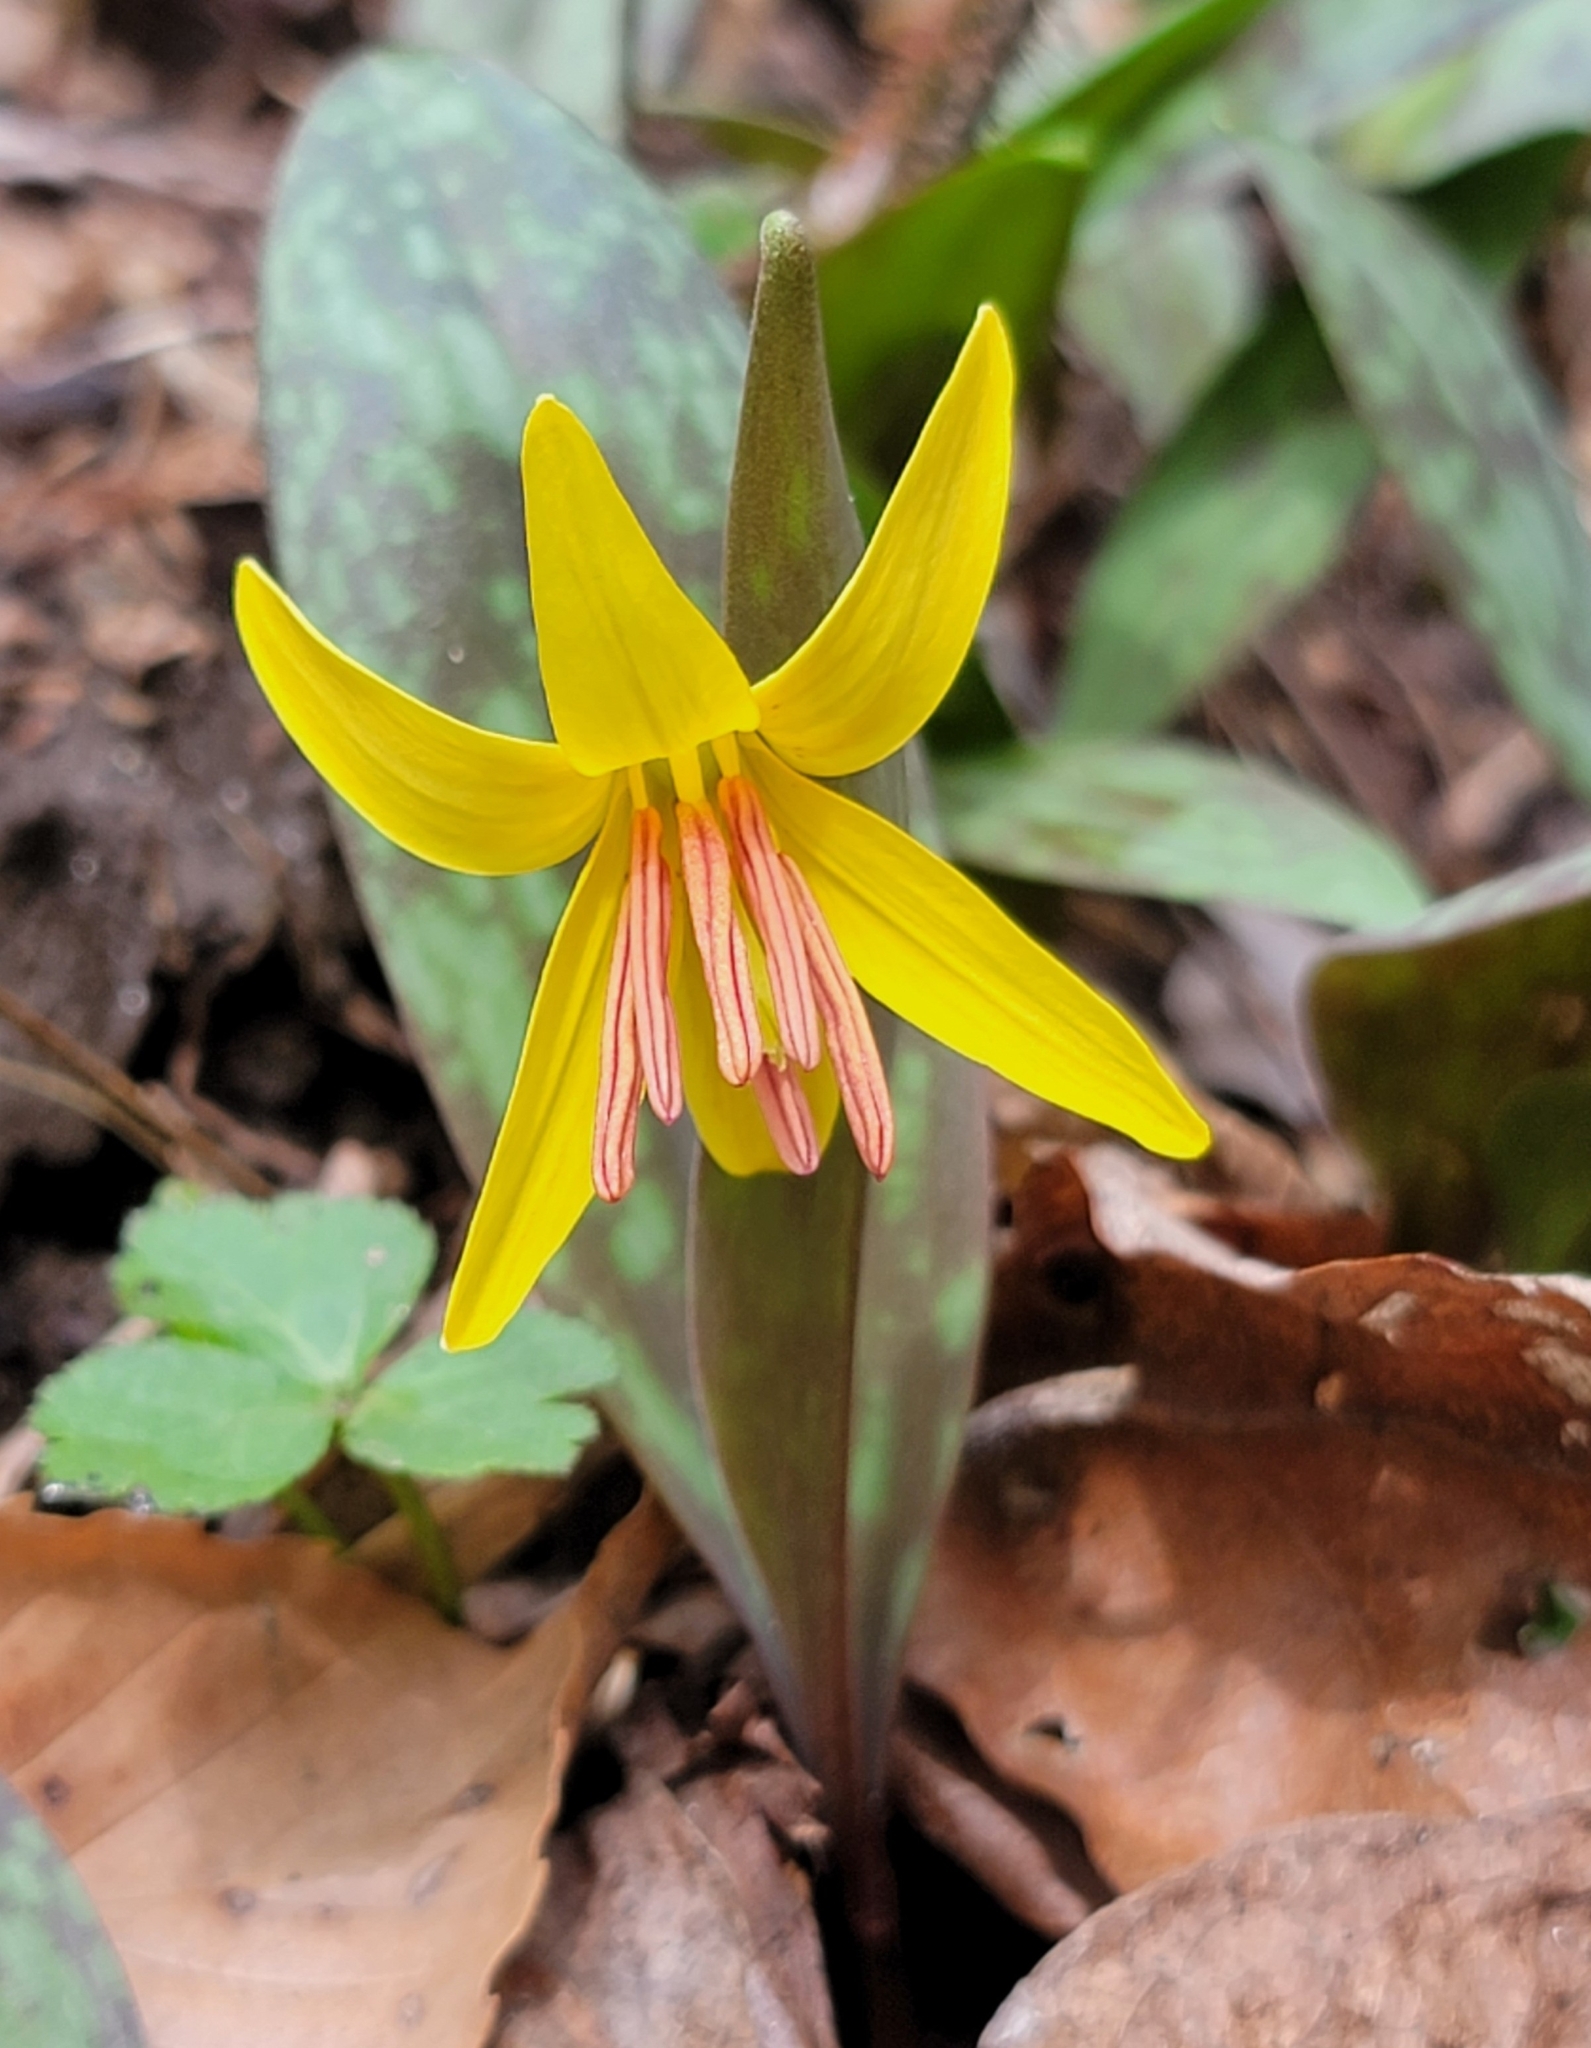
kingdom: Plantae
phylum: Tracheophyta
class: Liliopsida
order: Liliales
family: Liliaceae
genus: Erythronium
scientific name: Erythronium americanum
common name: Yellow adder's-tongue
